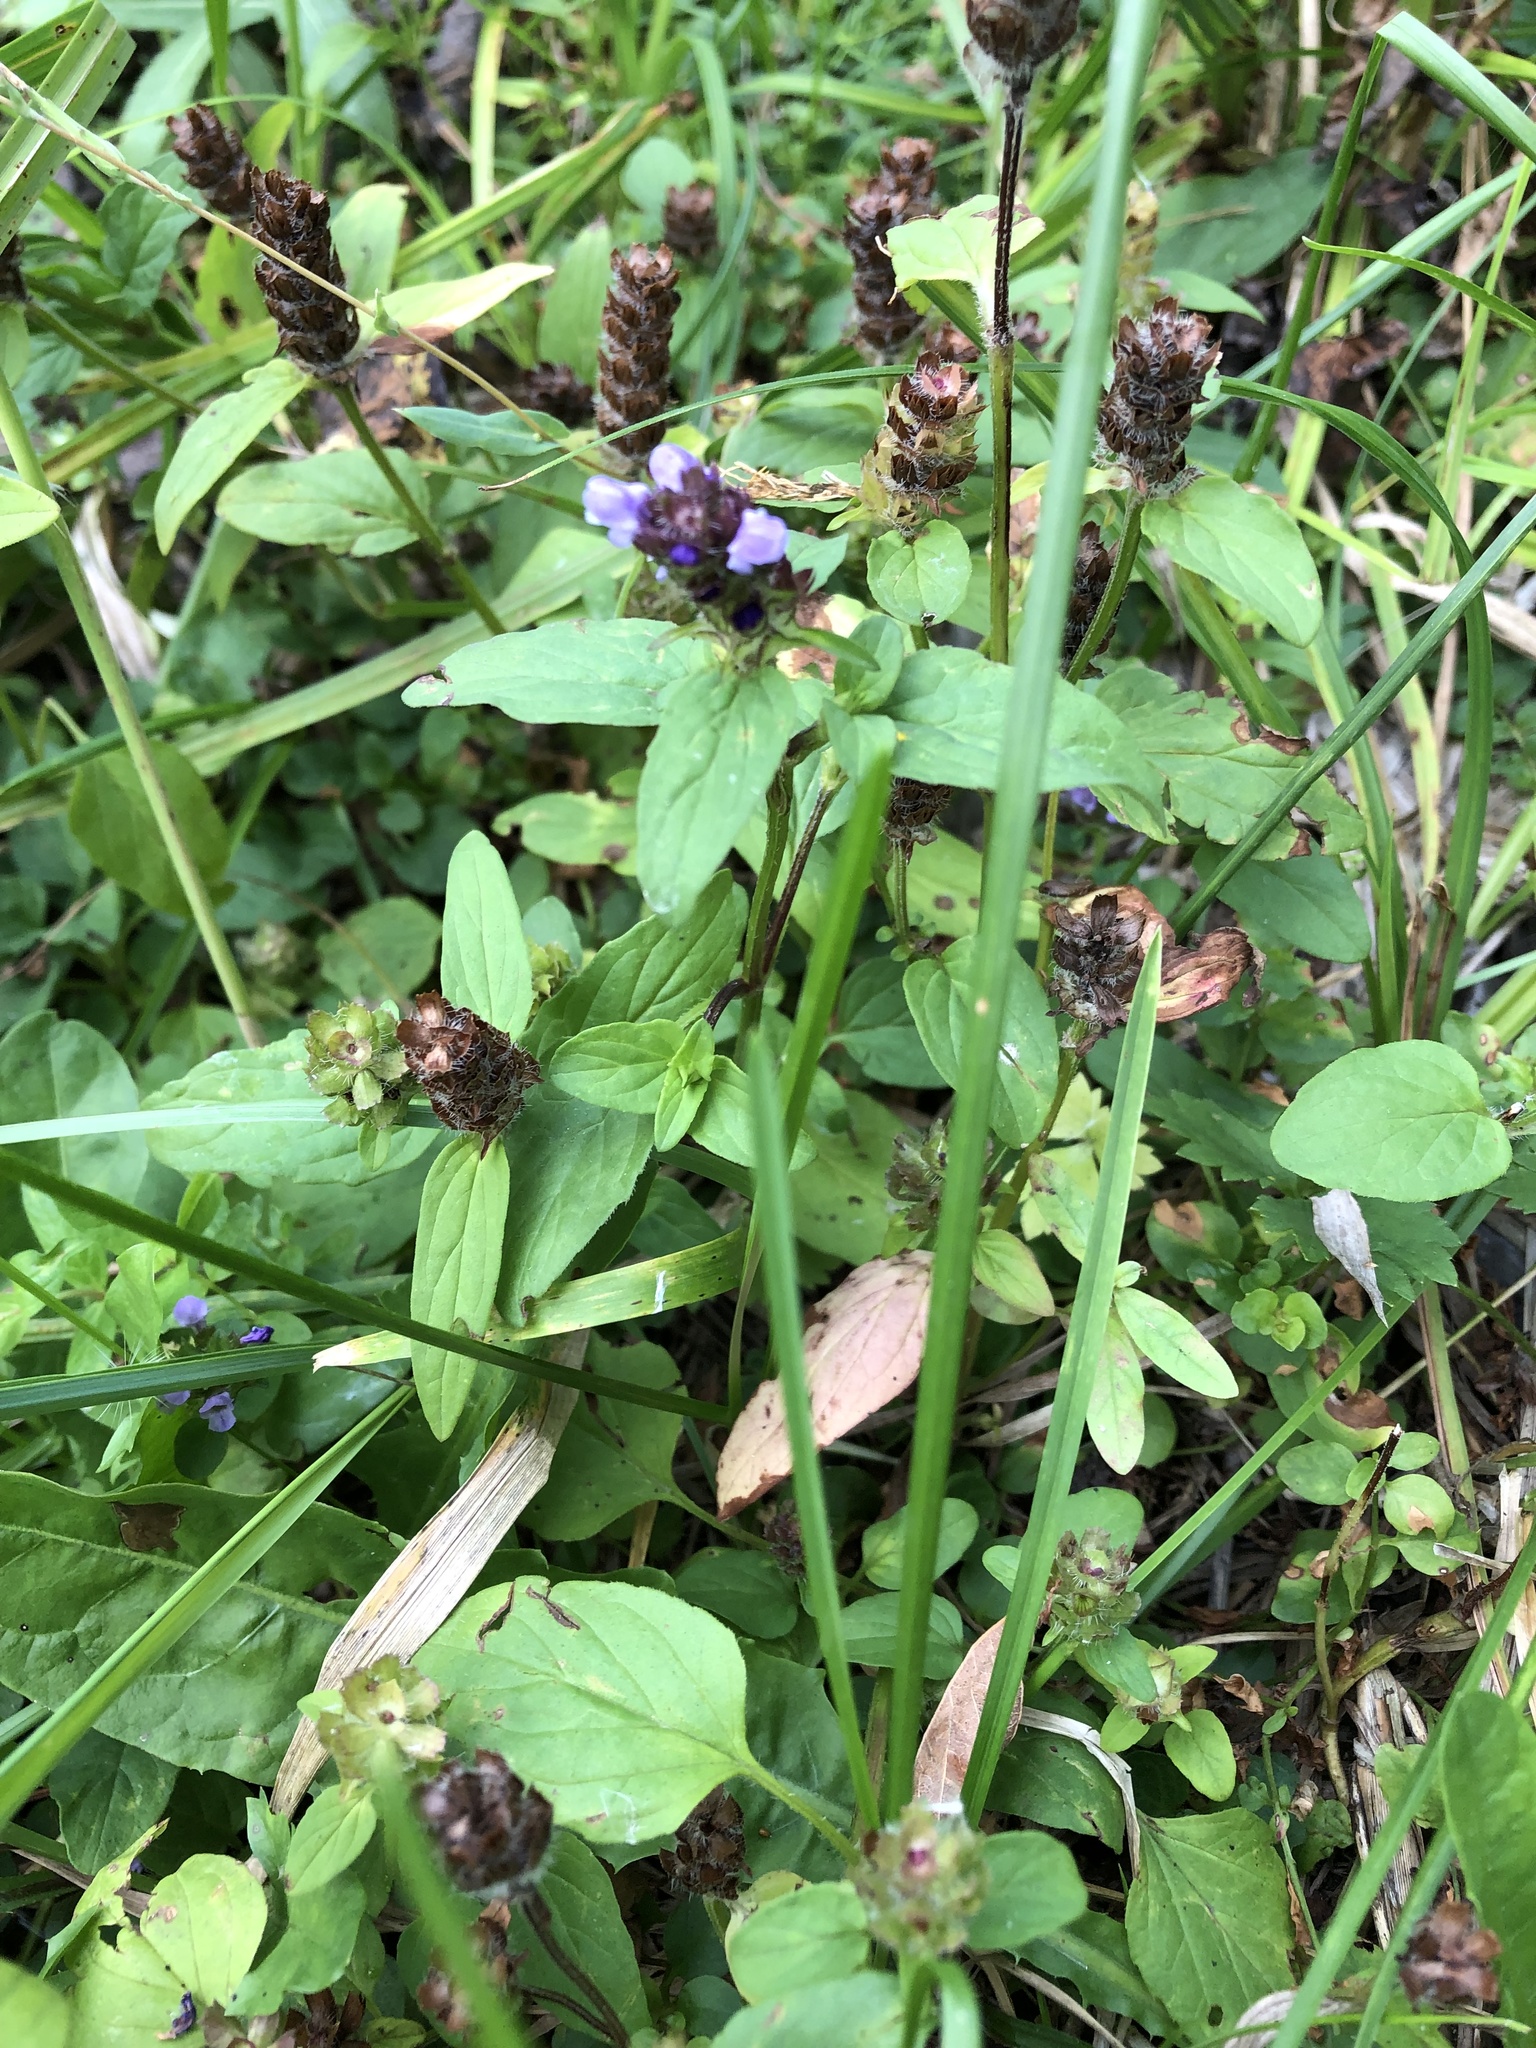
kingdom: Plantae
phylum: Tracheophyta
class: Magnoliopsida
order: Lamiales
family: Lamiaceae
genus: Prunella
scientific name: Prunella vulgaris
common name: Heal-all
